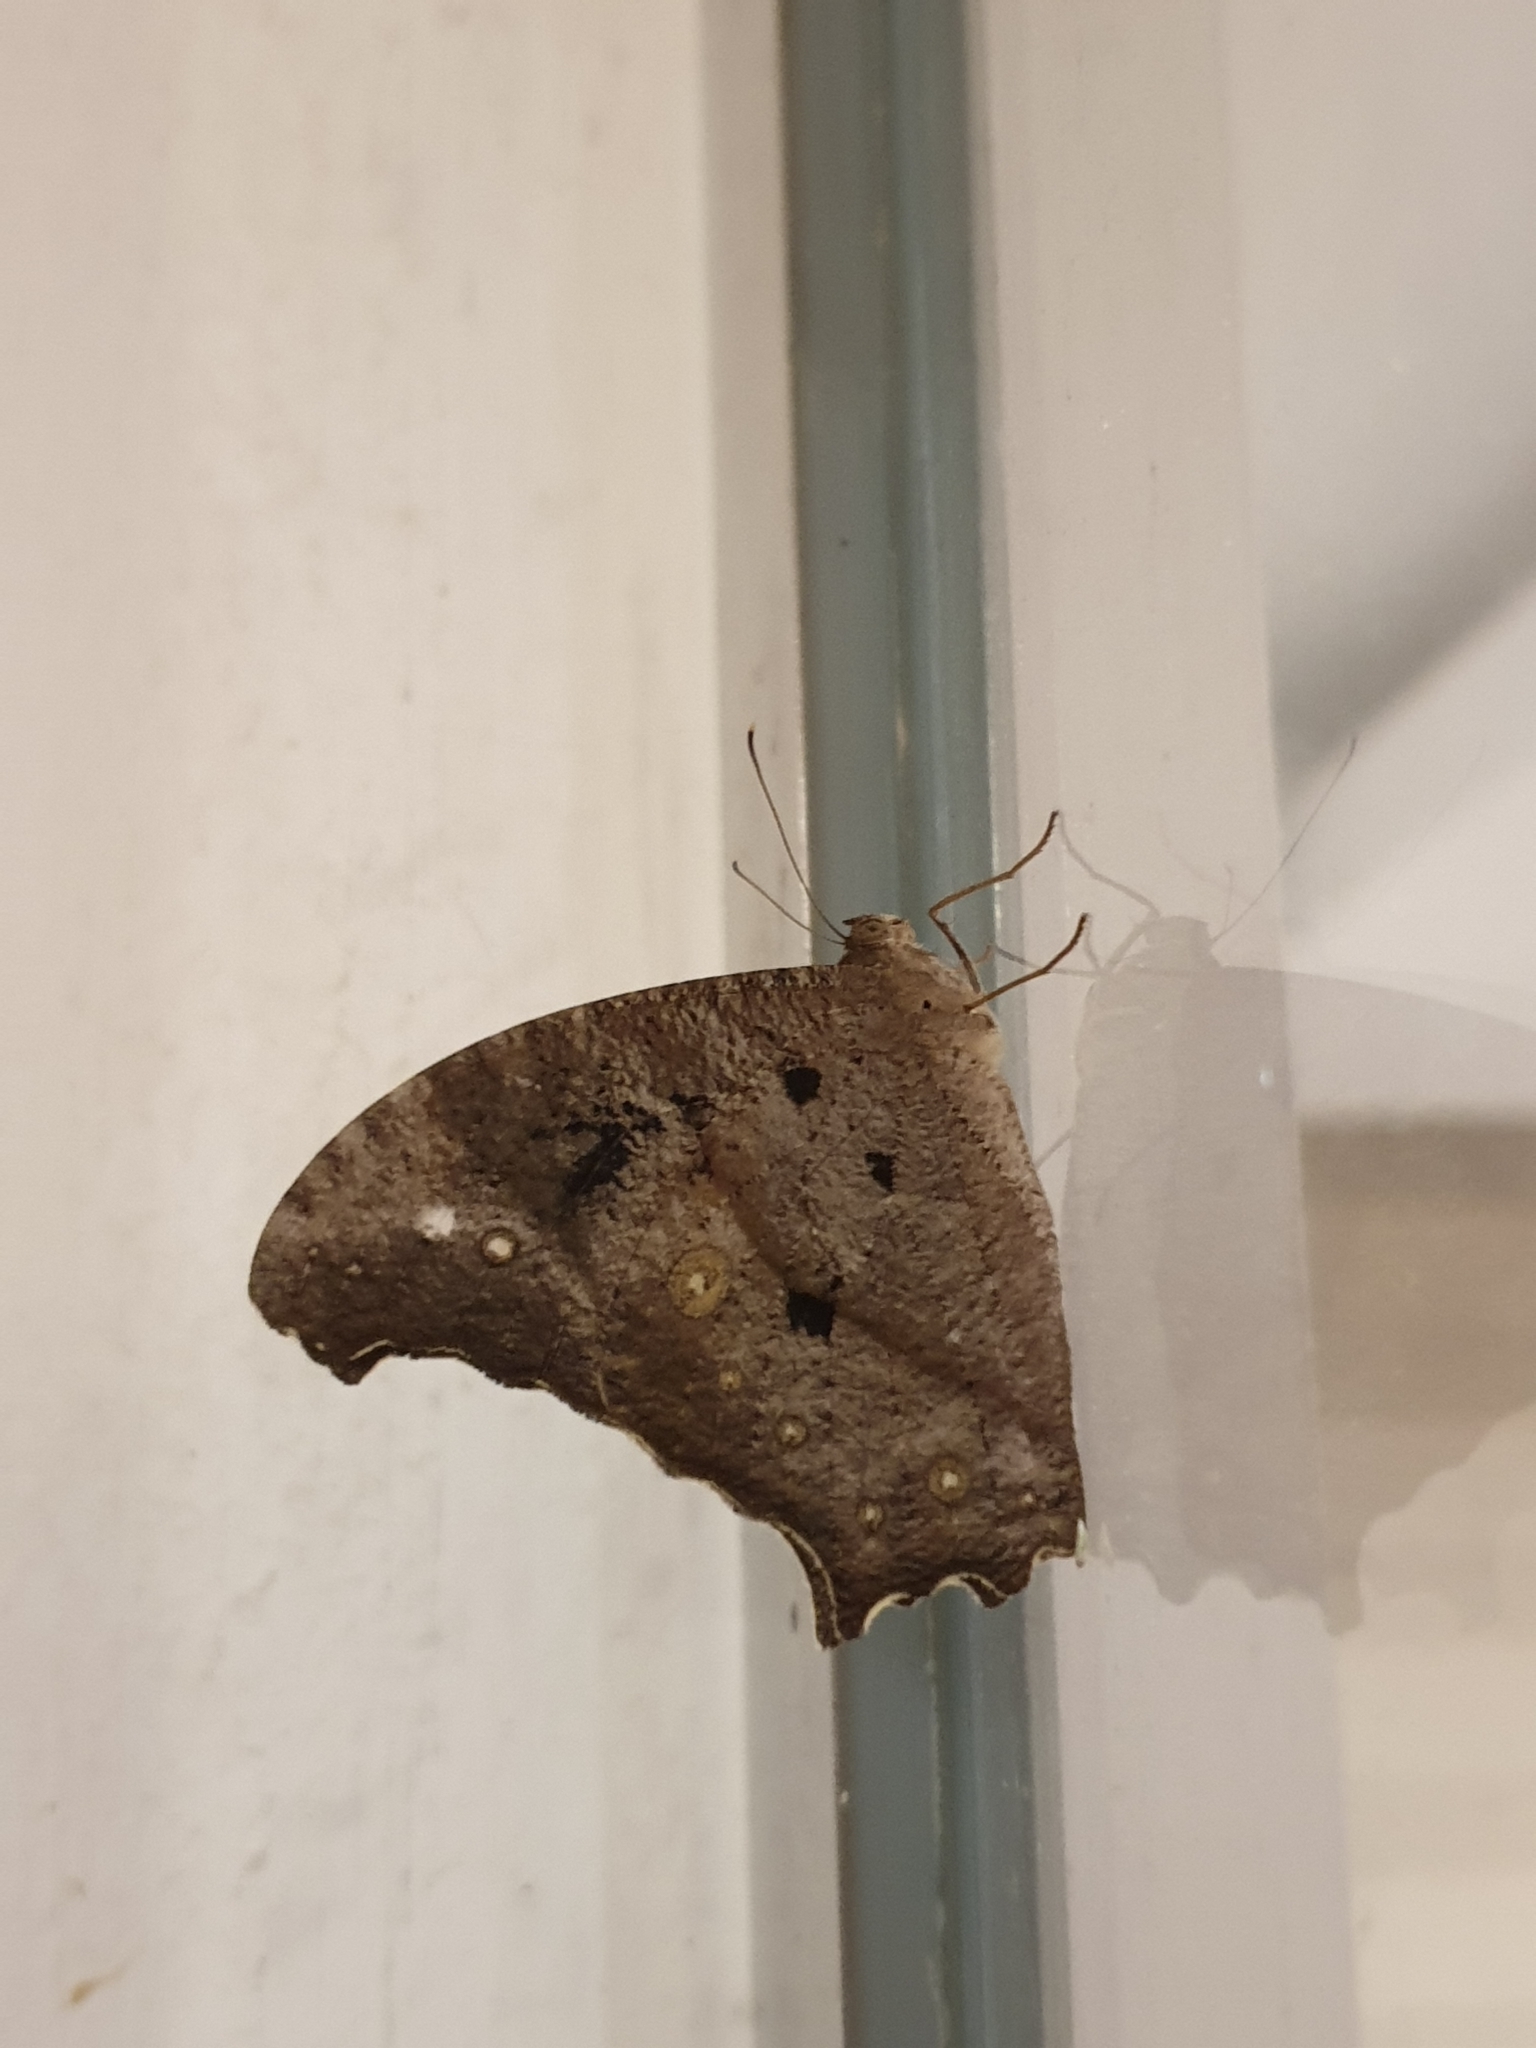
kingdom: Animalia
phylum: Arthropoda
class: Insecta
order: Lepidoptera
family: Nymphalidae
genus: Melanitis
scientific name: Melanitis leda
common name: Twilight brown
